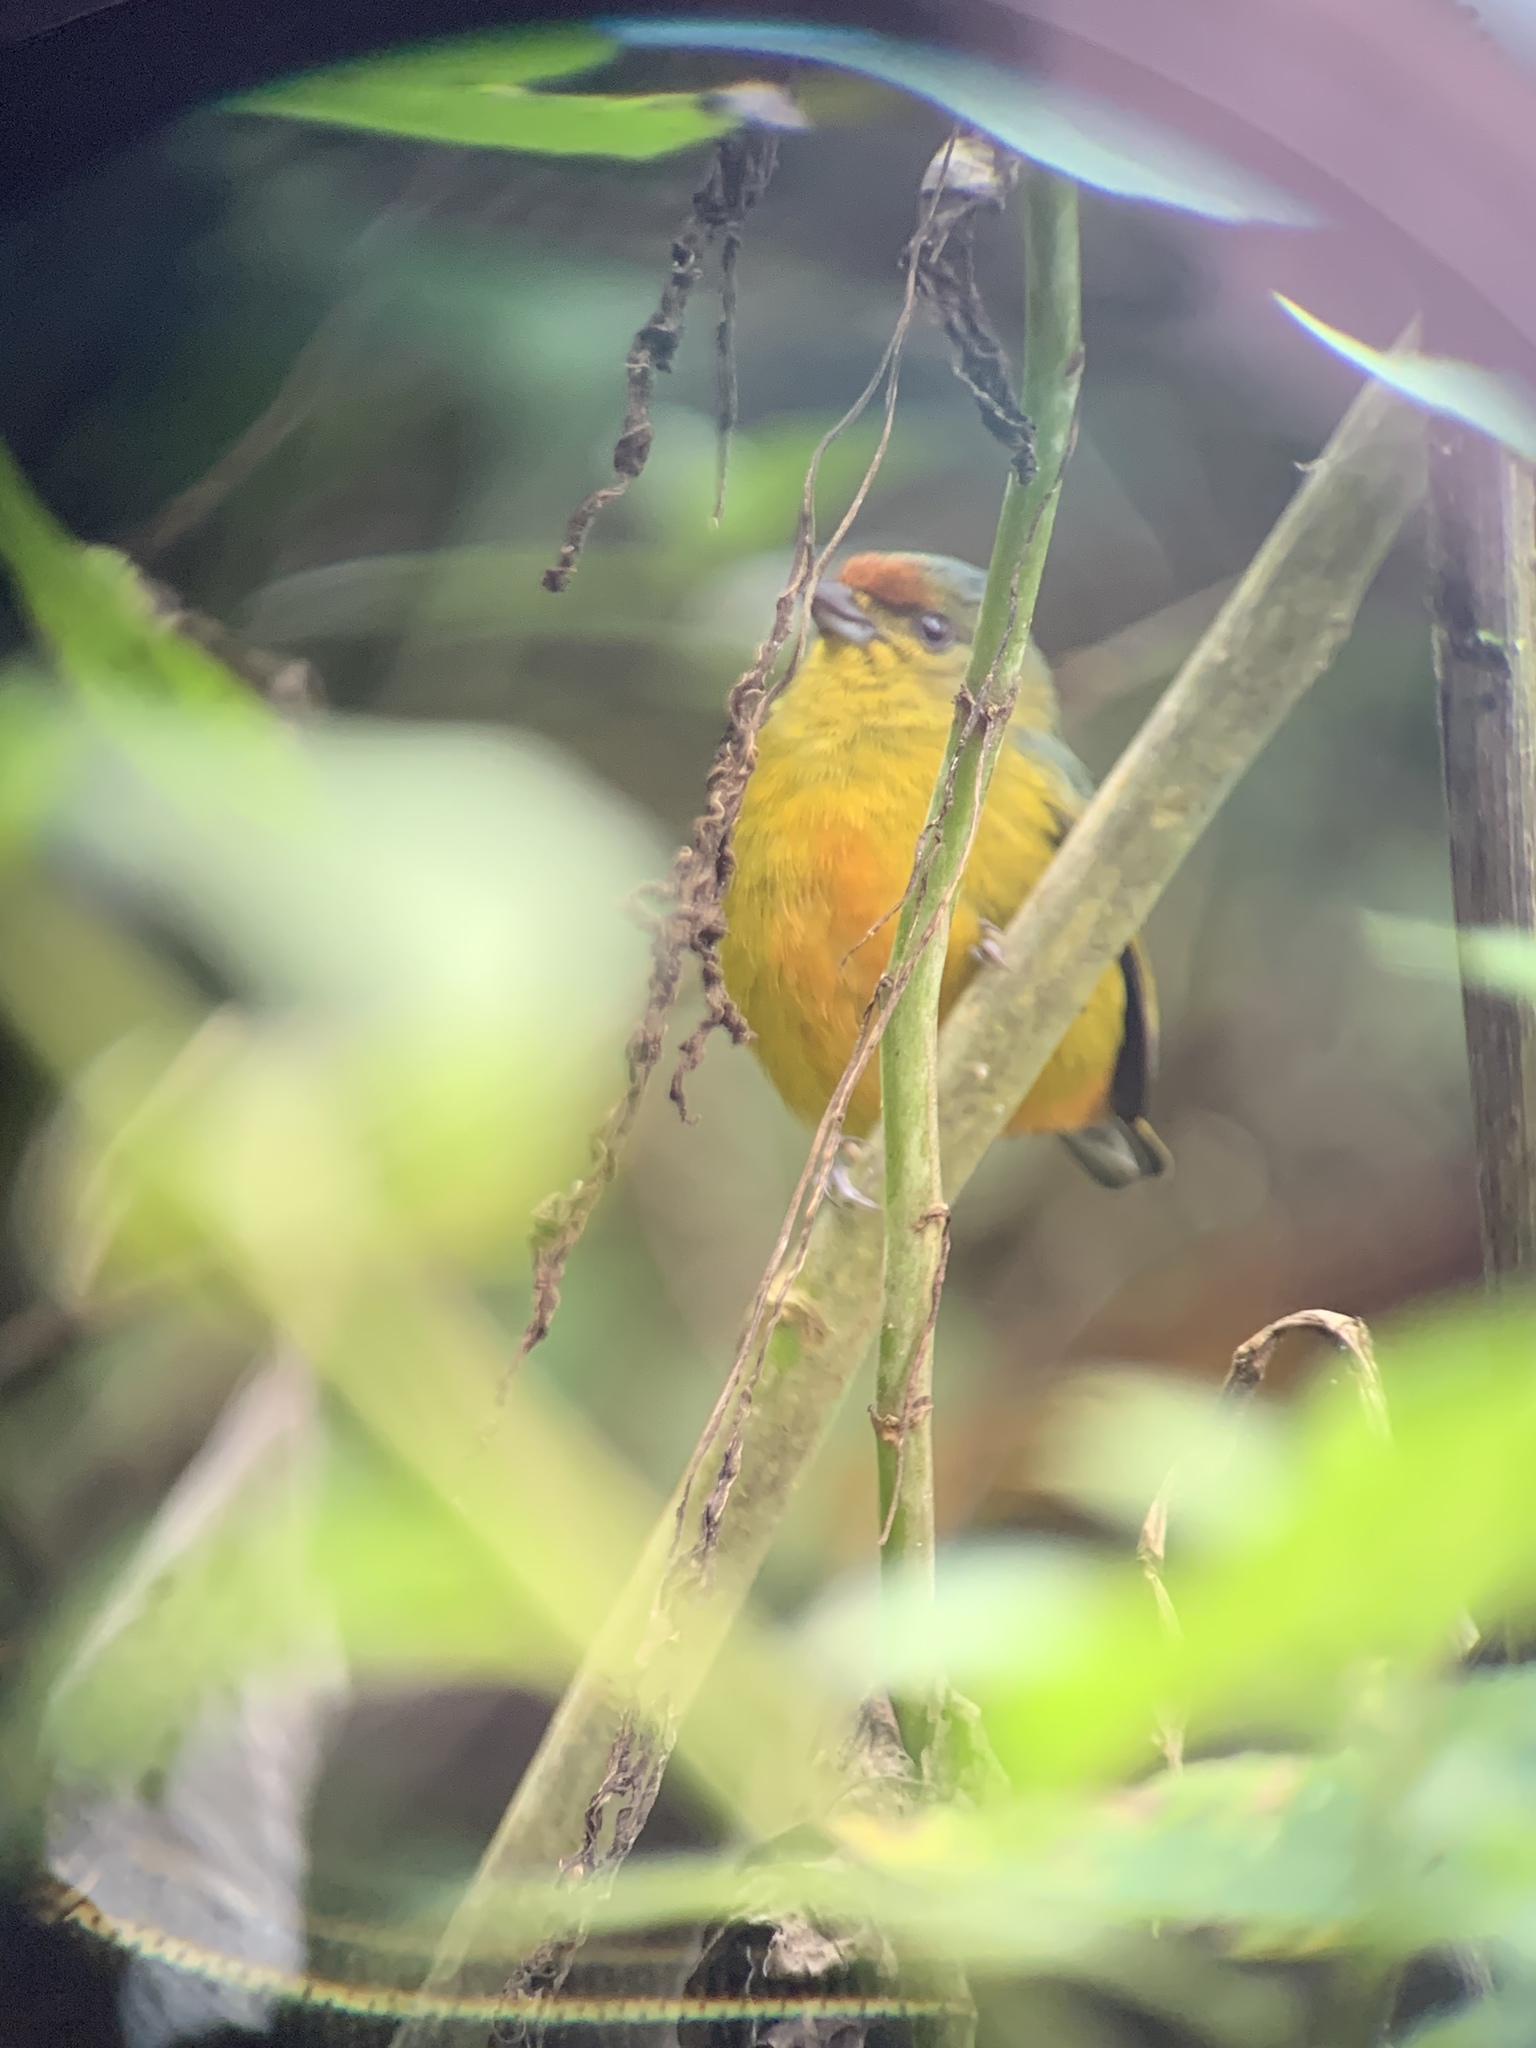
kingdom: Animalia
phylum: Chordata
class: Aves
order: Passeriformes
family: Fringillidae
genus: Euphonia
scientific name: Euphonia fulvicrissa
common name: Fulvous-vented euphonia
